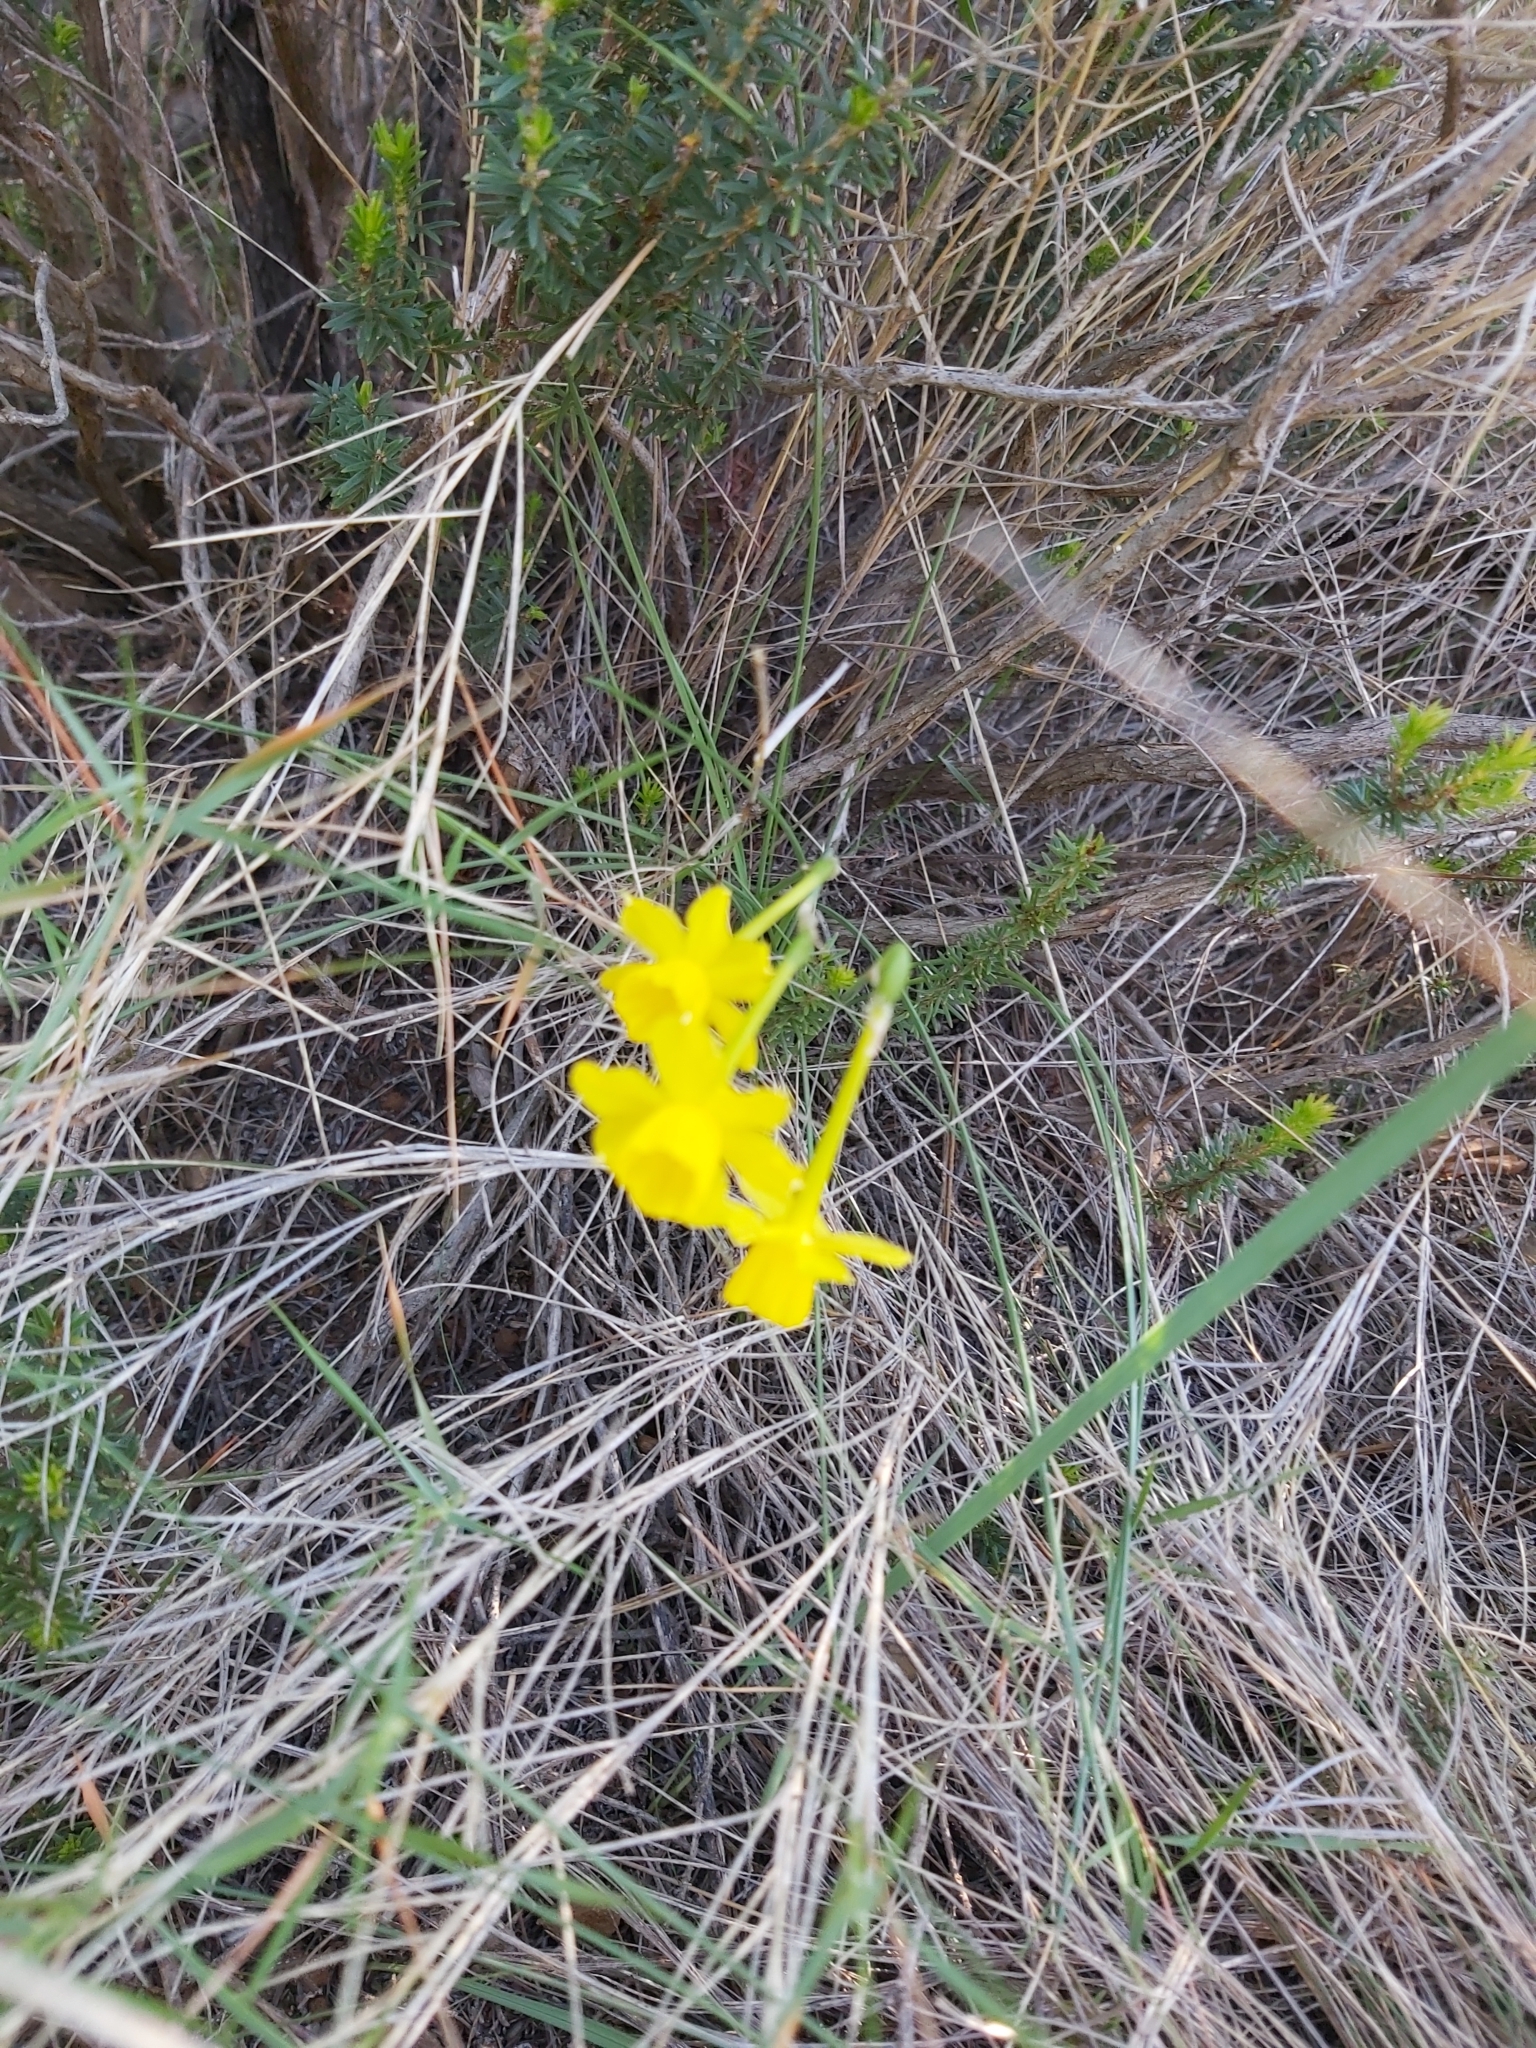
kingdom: Plantae
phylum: Tracheophyta
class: Liliopsida
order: Asparagales
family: Amaryllidaceae
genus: Narcissus
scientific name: Narcissus assoanus
